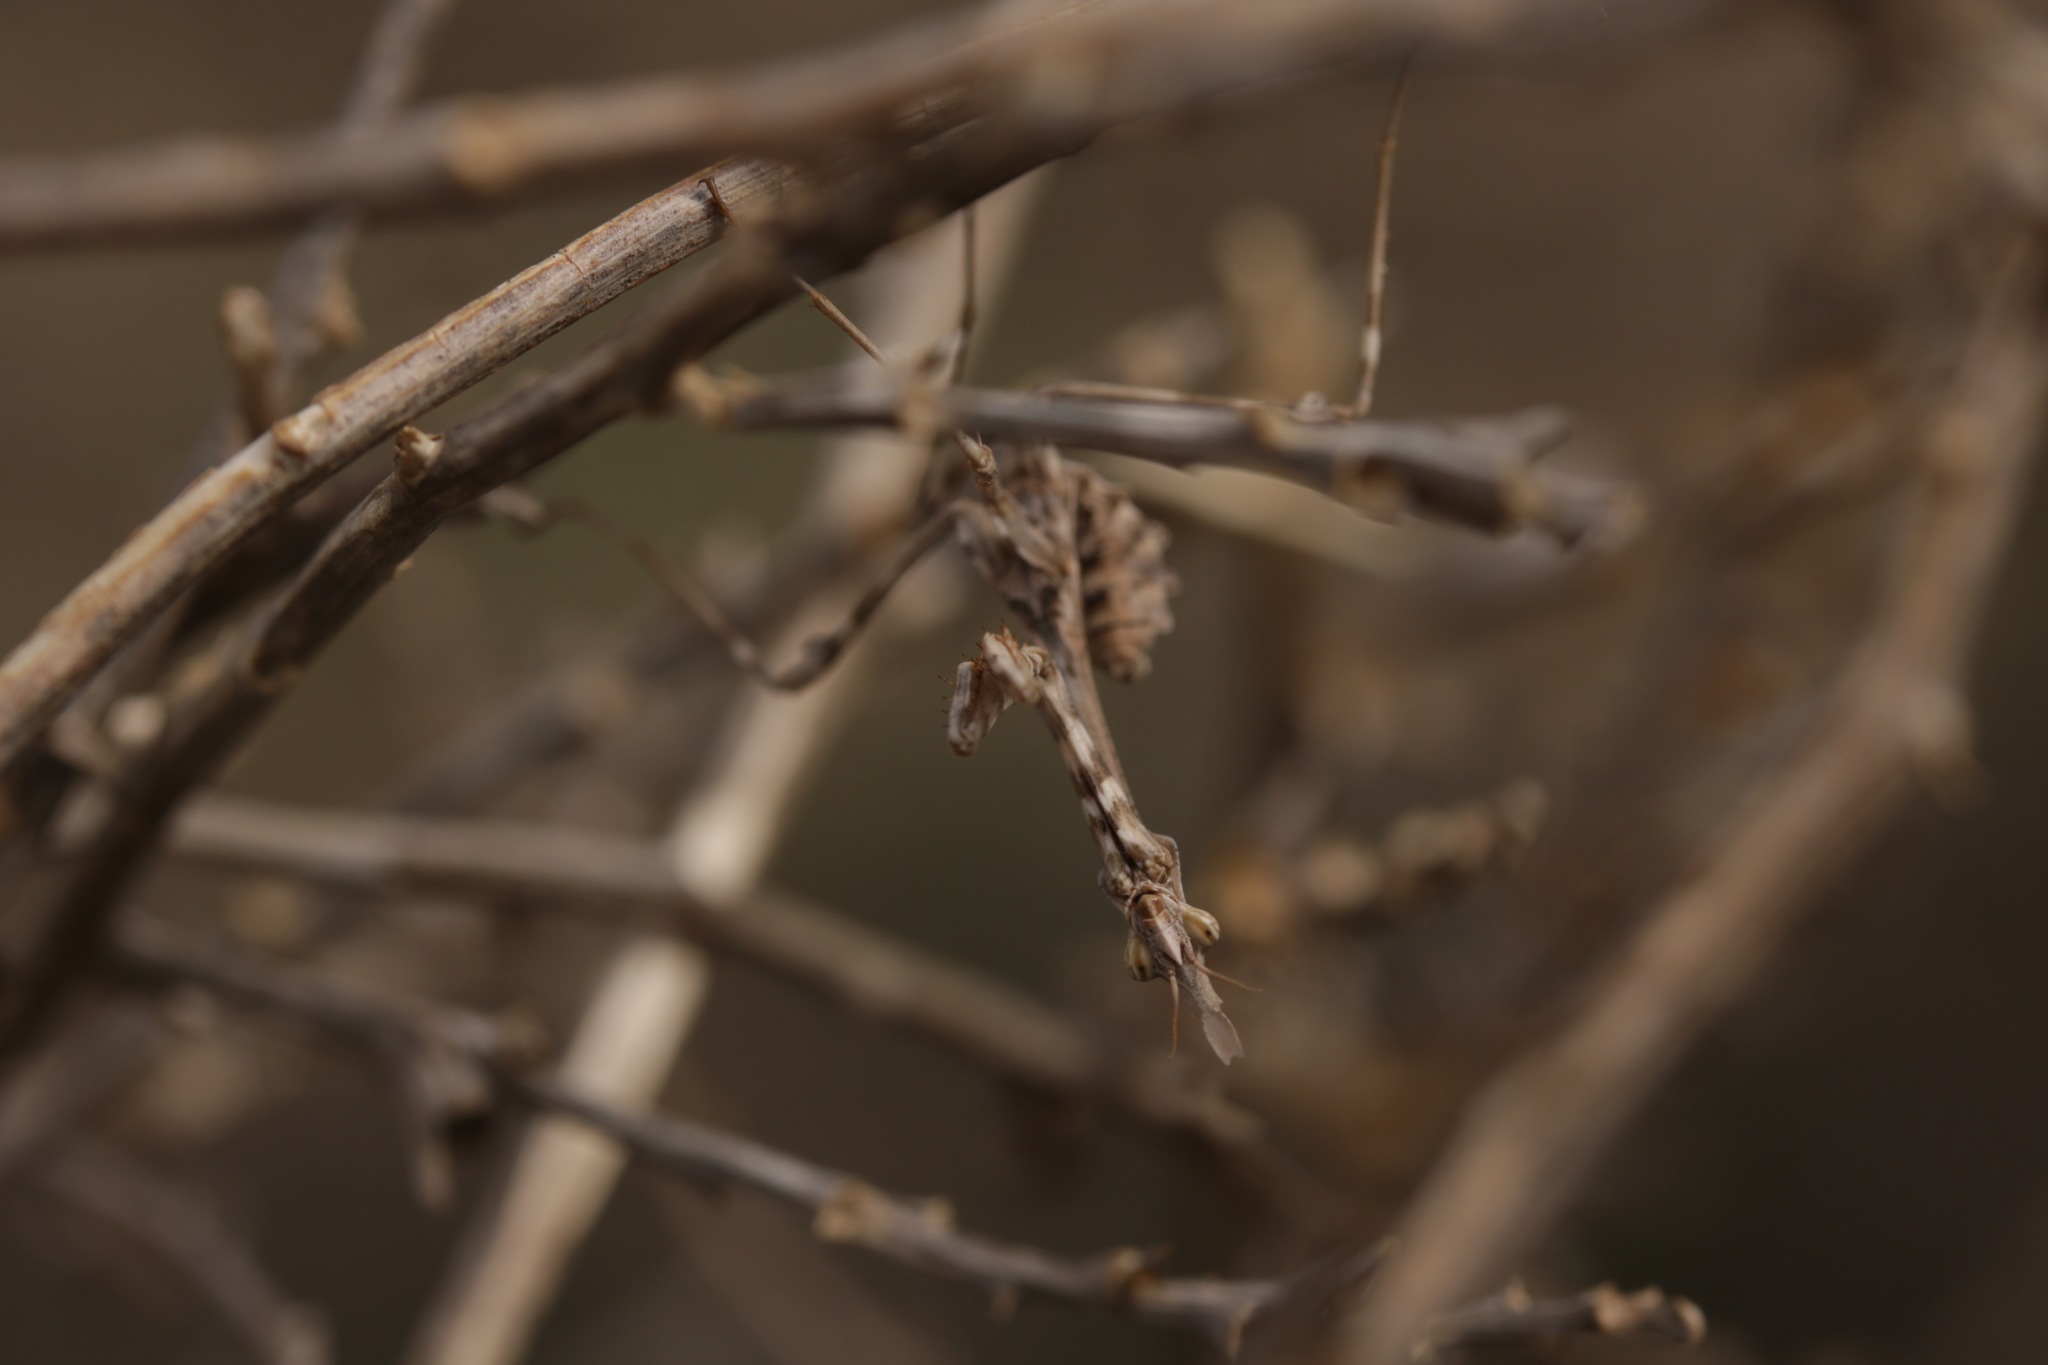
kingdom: Animalia
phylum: Arthropoda
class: Insecta
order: Mantodea
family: Empusidae
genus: Empusa
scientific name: Empusa pennicornis
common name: Conehead mantis
